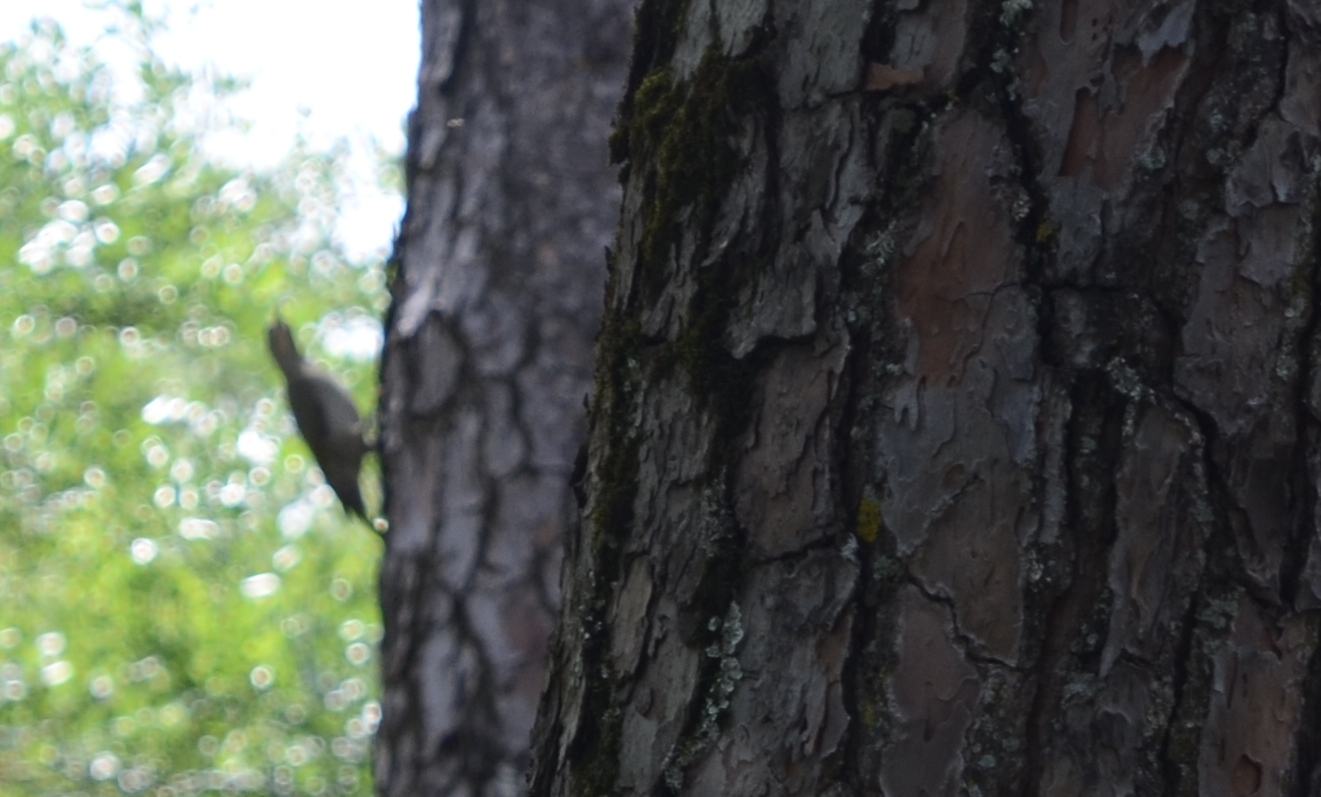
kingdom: Animalia
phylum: Chordata
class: Aves
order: Piciformes
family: Picidae
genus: Picus
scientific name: Picus vaillantii
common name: Levaillant's woodpecker
